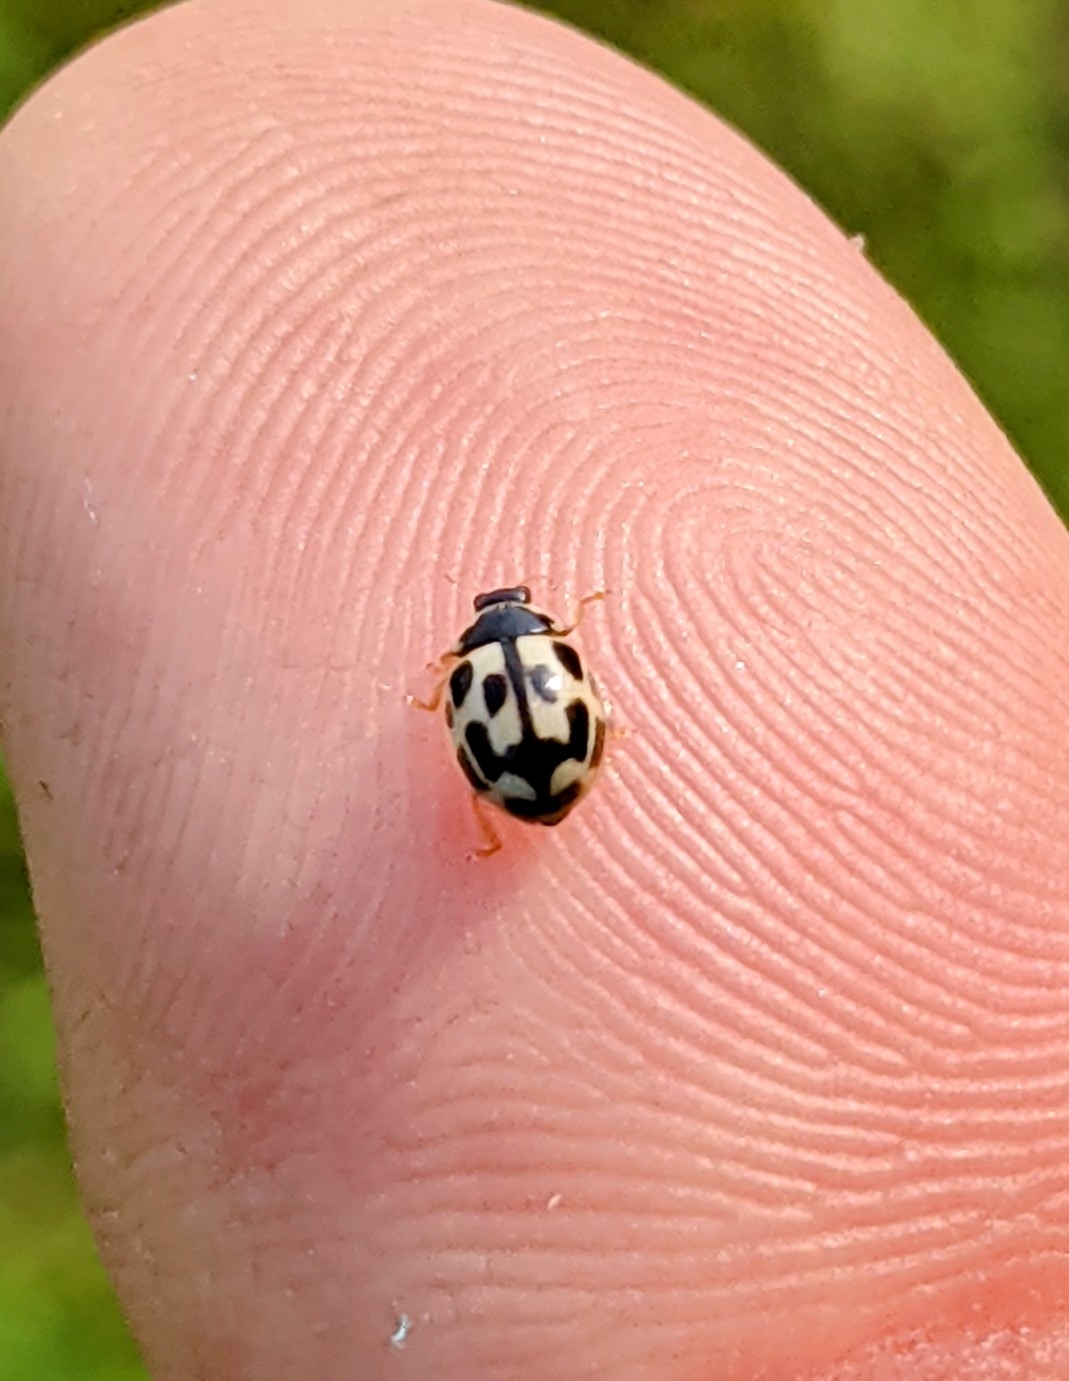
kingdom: Animalia
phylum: Arthropoda
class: Insecta
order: Coleoptera
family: Coccinellidae
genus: Propylaea
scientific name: Propylaea quatuordecimpunctata
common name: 14-spotted ladybird beetle
